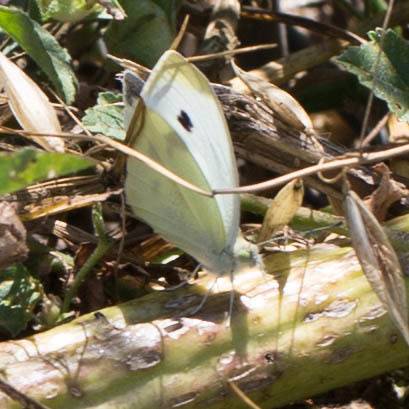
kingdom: Animalia
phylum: Arthropoda
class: Insecta
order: Lepidoptera
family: Pieridae
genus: Pieris
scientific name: Pieris rapae
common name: Small white
